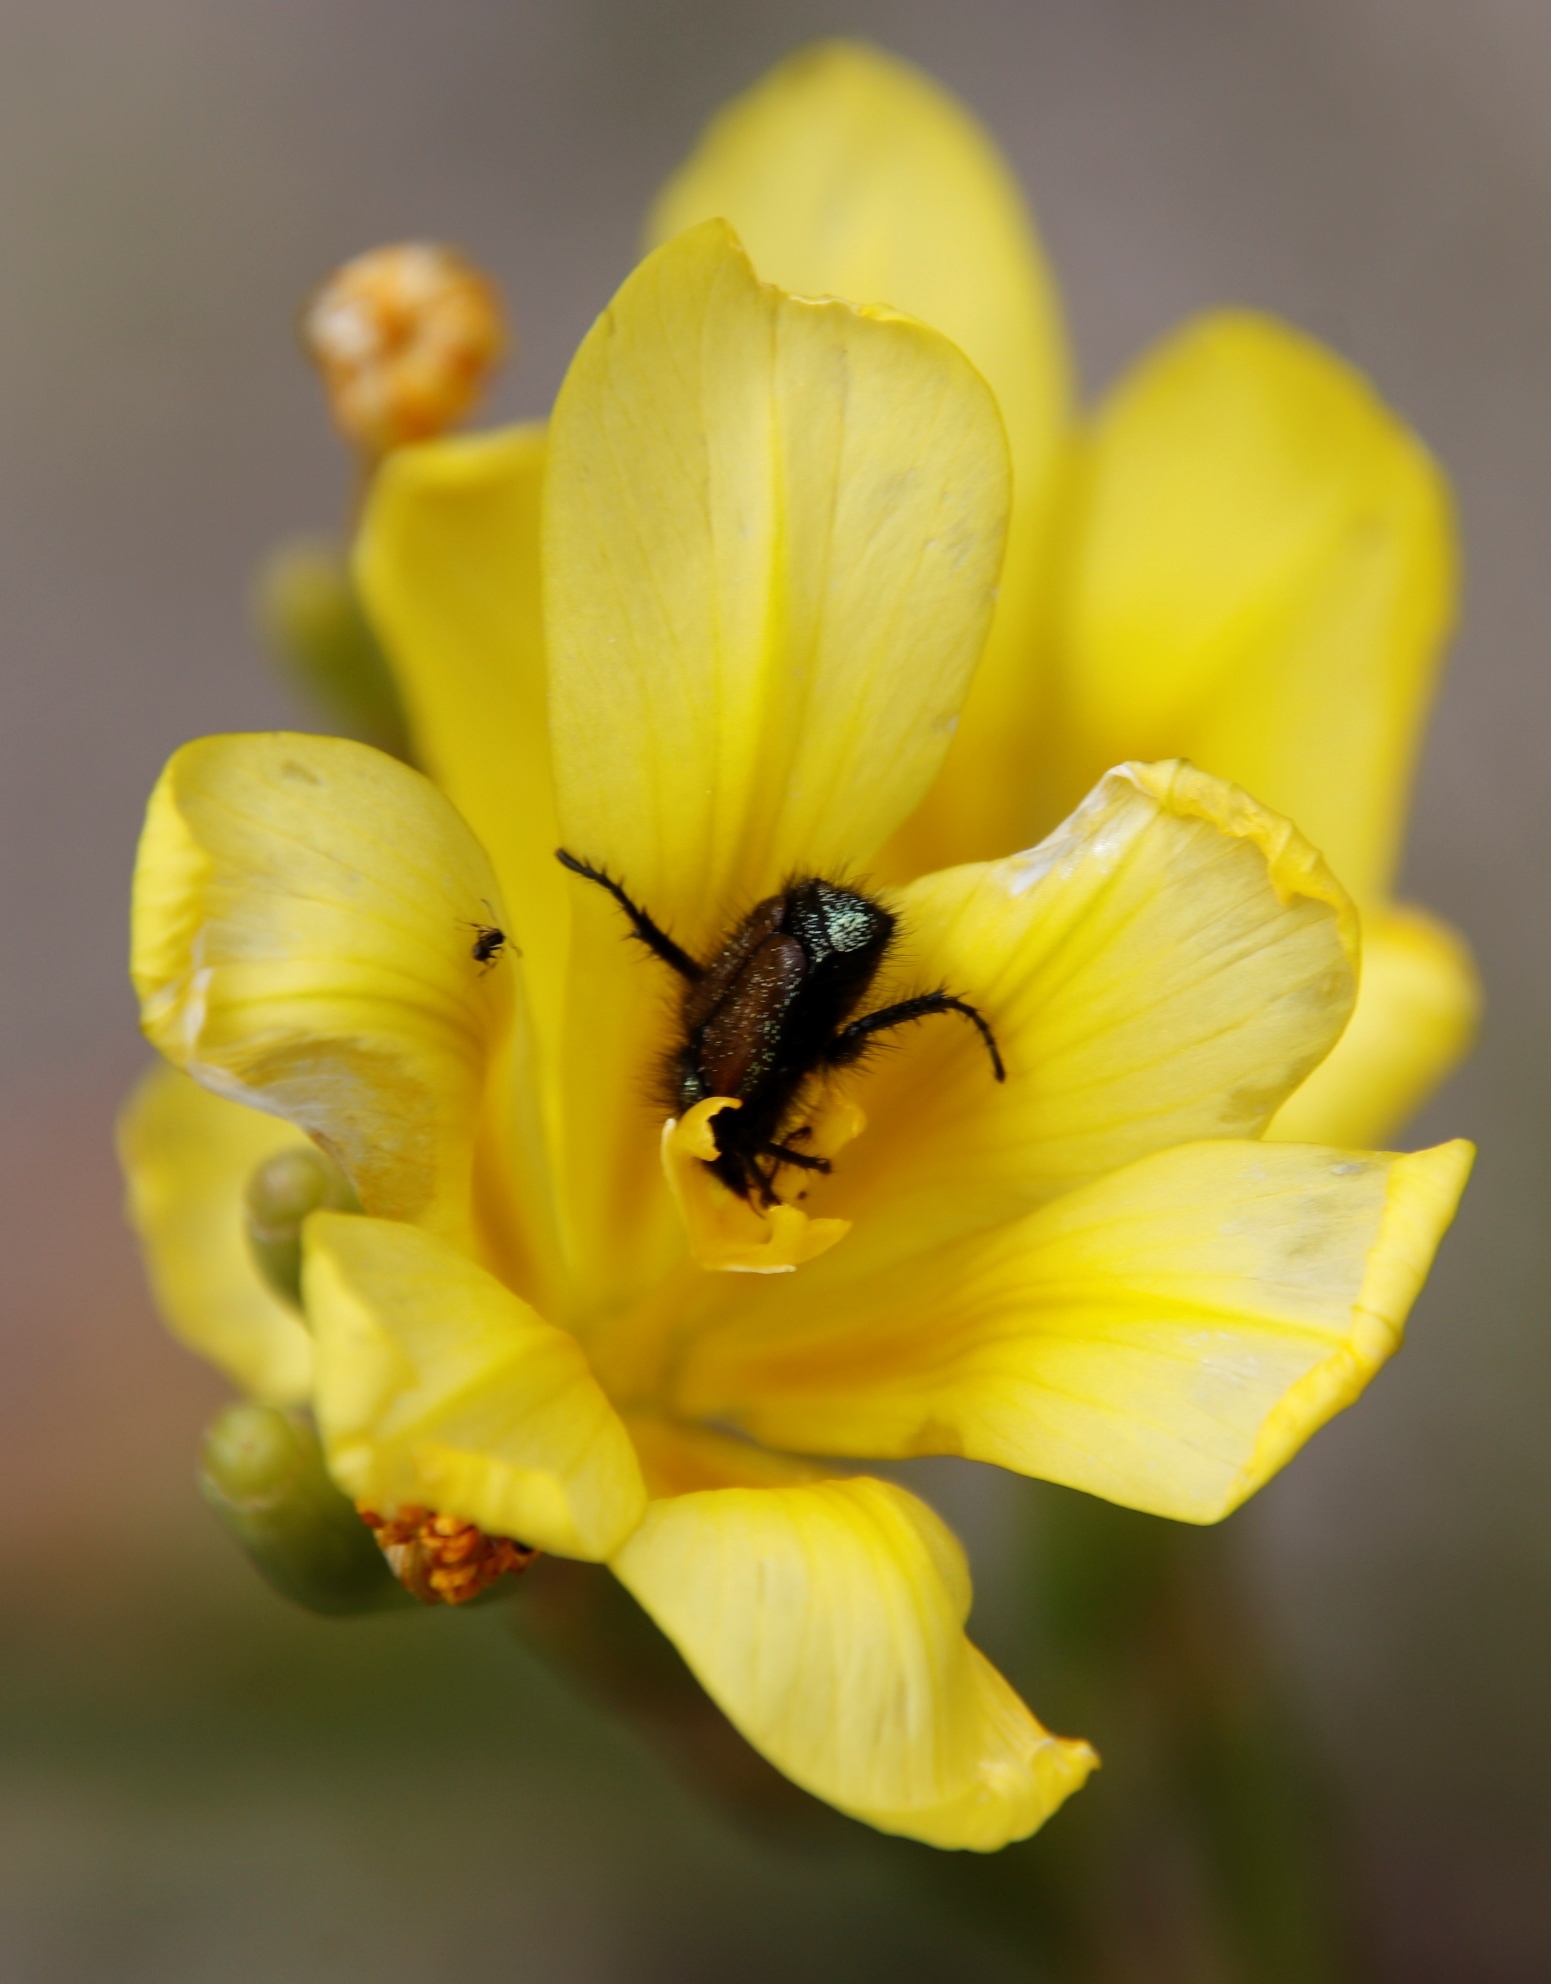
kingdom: Plantae
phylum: Tracheophyta
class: Liliopsida
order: Asparagales
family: Iridaceae
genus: Moraea
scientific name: Moraea ochroleuca
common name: Red tulp
